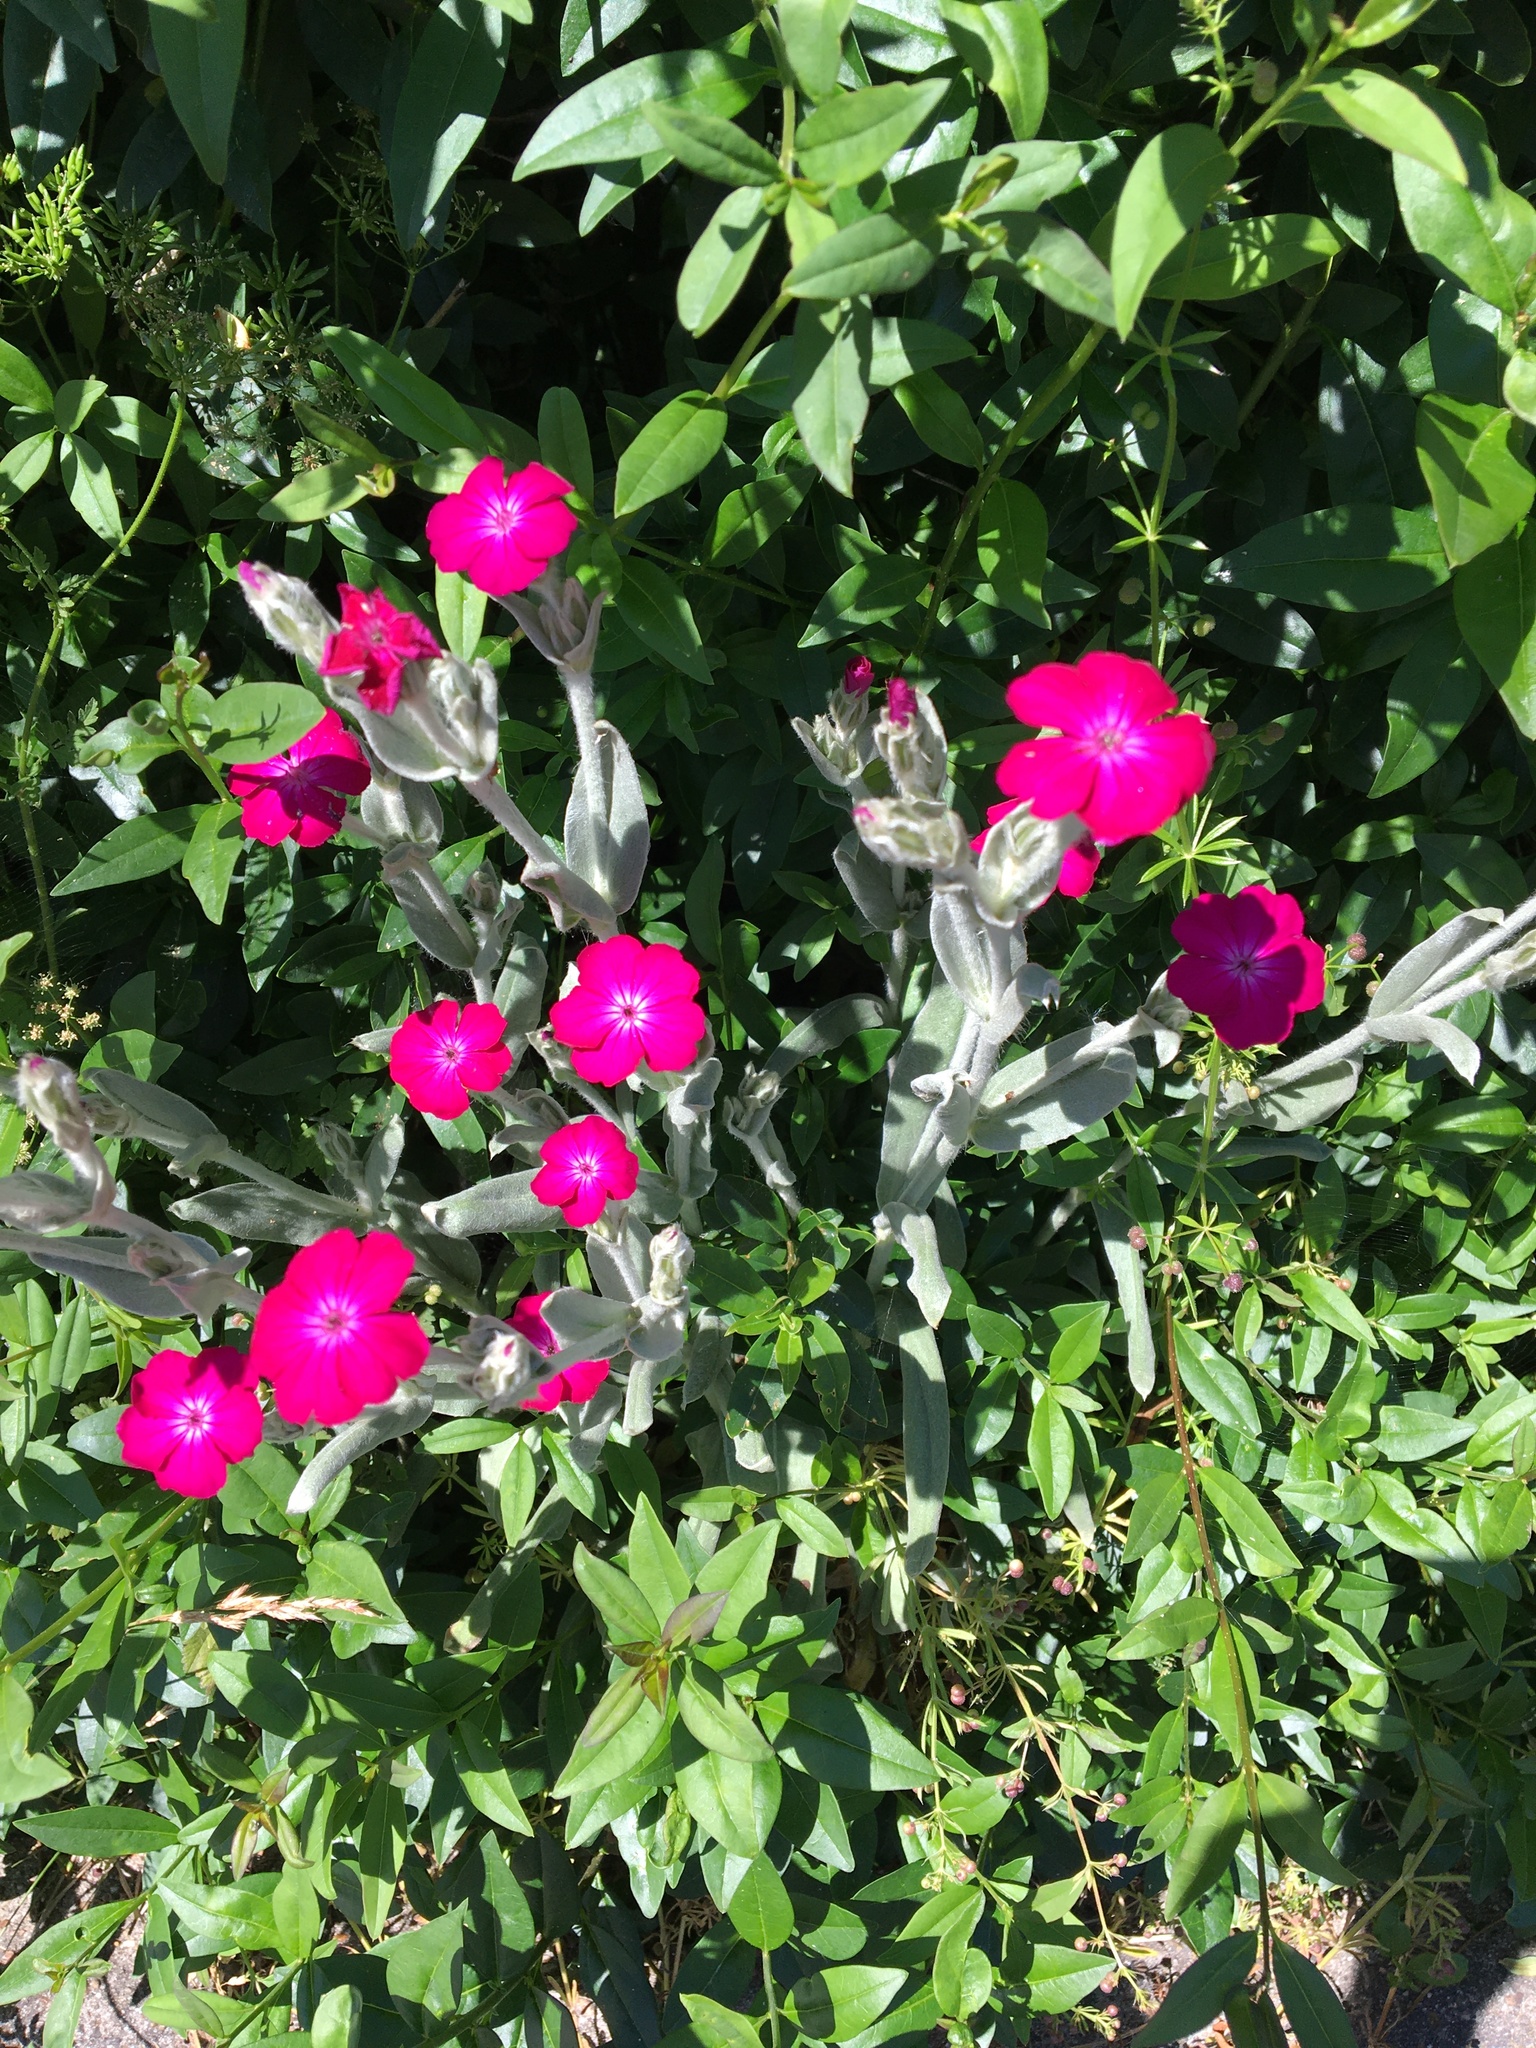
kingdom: Plantae
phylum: Tracheophyta
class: Magnoliopsida
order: Caryophyllales
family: Caryophyllaceae
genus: Silene
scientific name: Silene coronaria
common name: Rose campion
